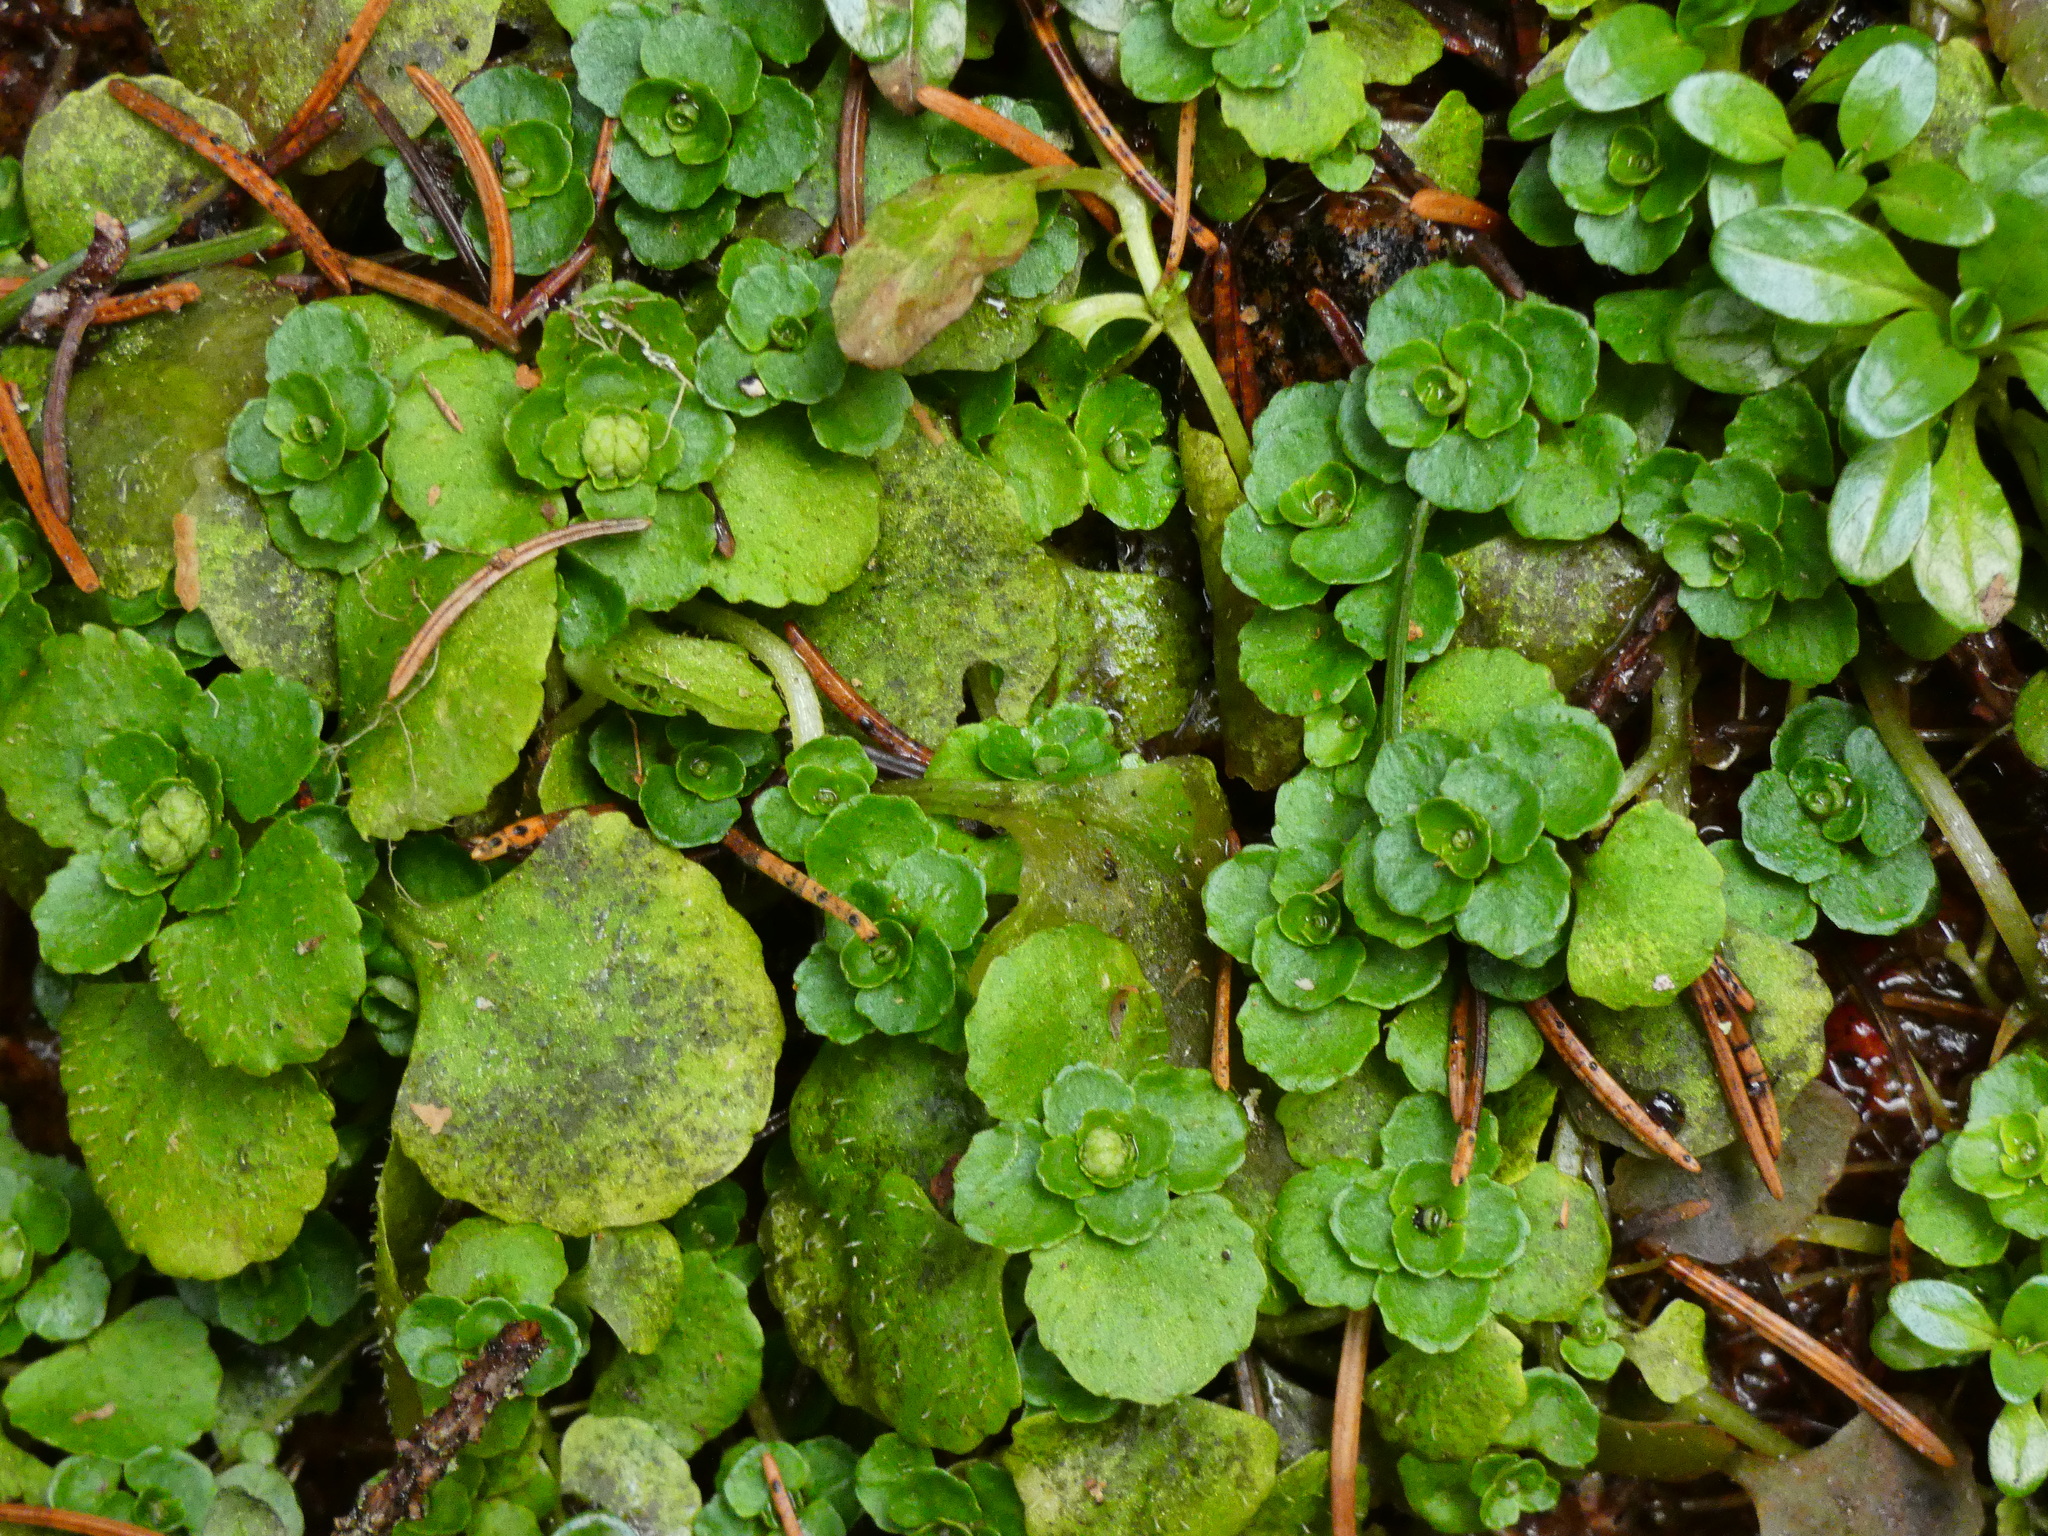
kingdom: Plantae
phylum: Tracheophyta
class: Magnoliopsida
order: Saxifragales
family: Saxifragaceae
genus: Chrysosplenium
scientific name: Chrysosplenium oppositifolium
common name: Opposite-leaved golden-saxifrage
